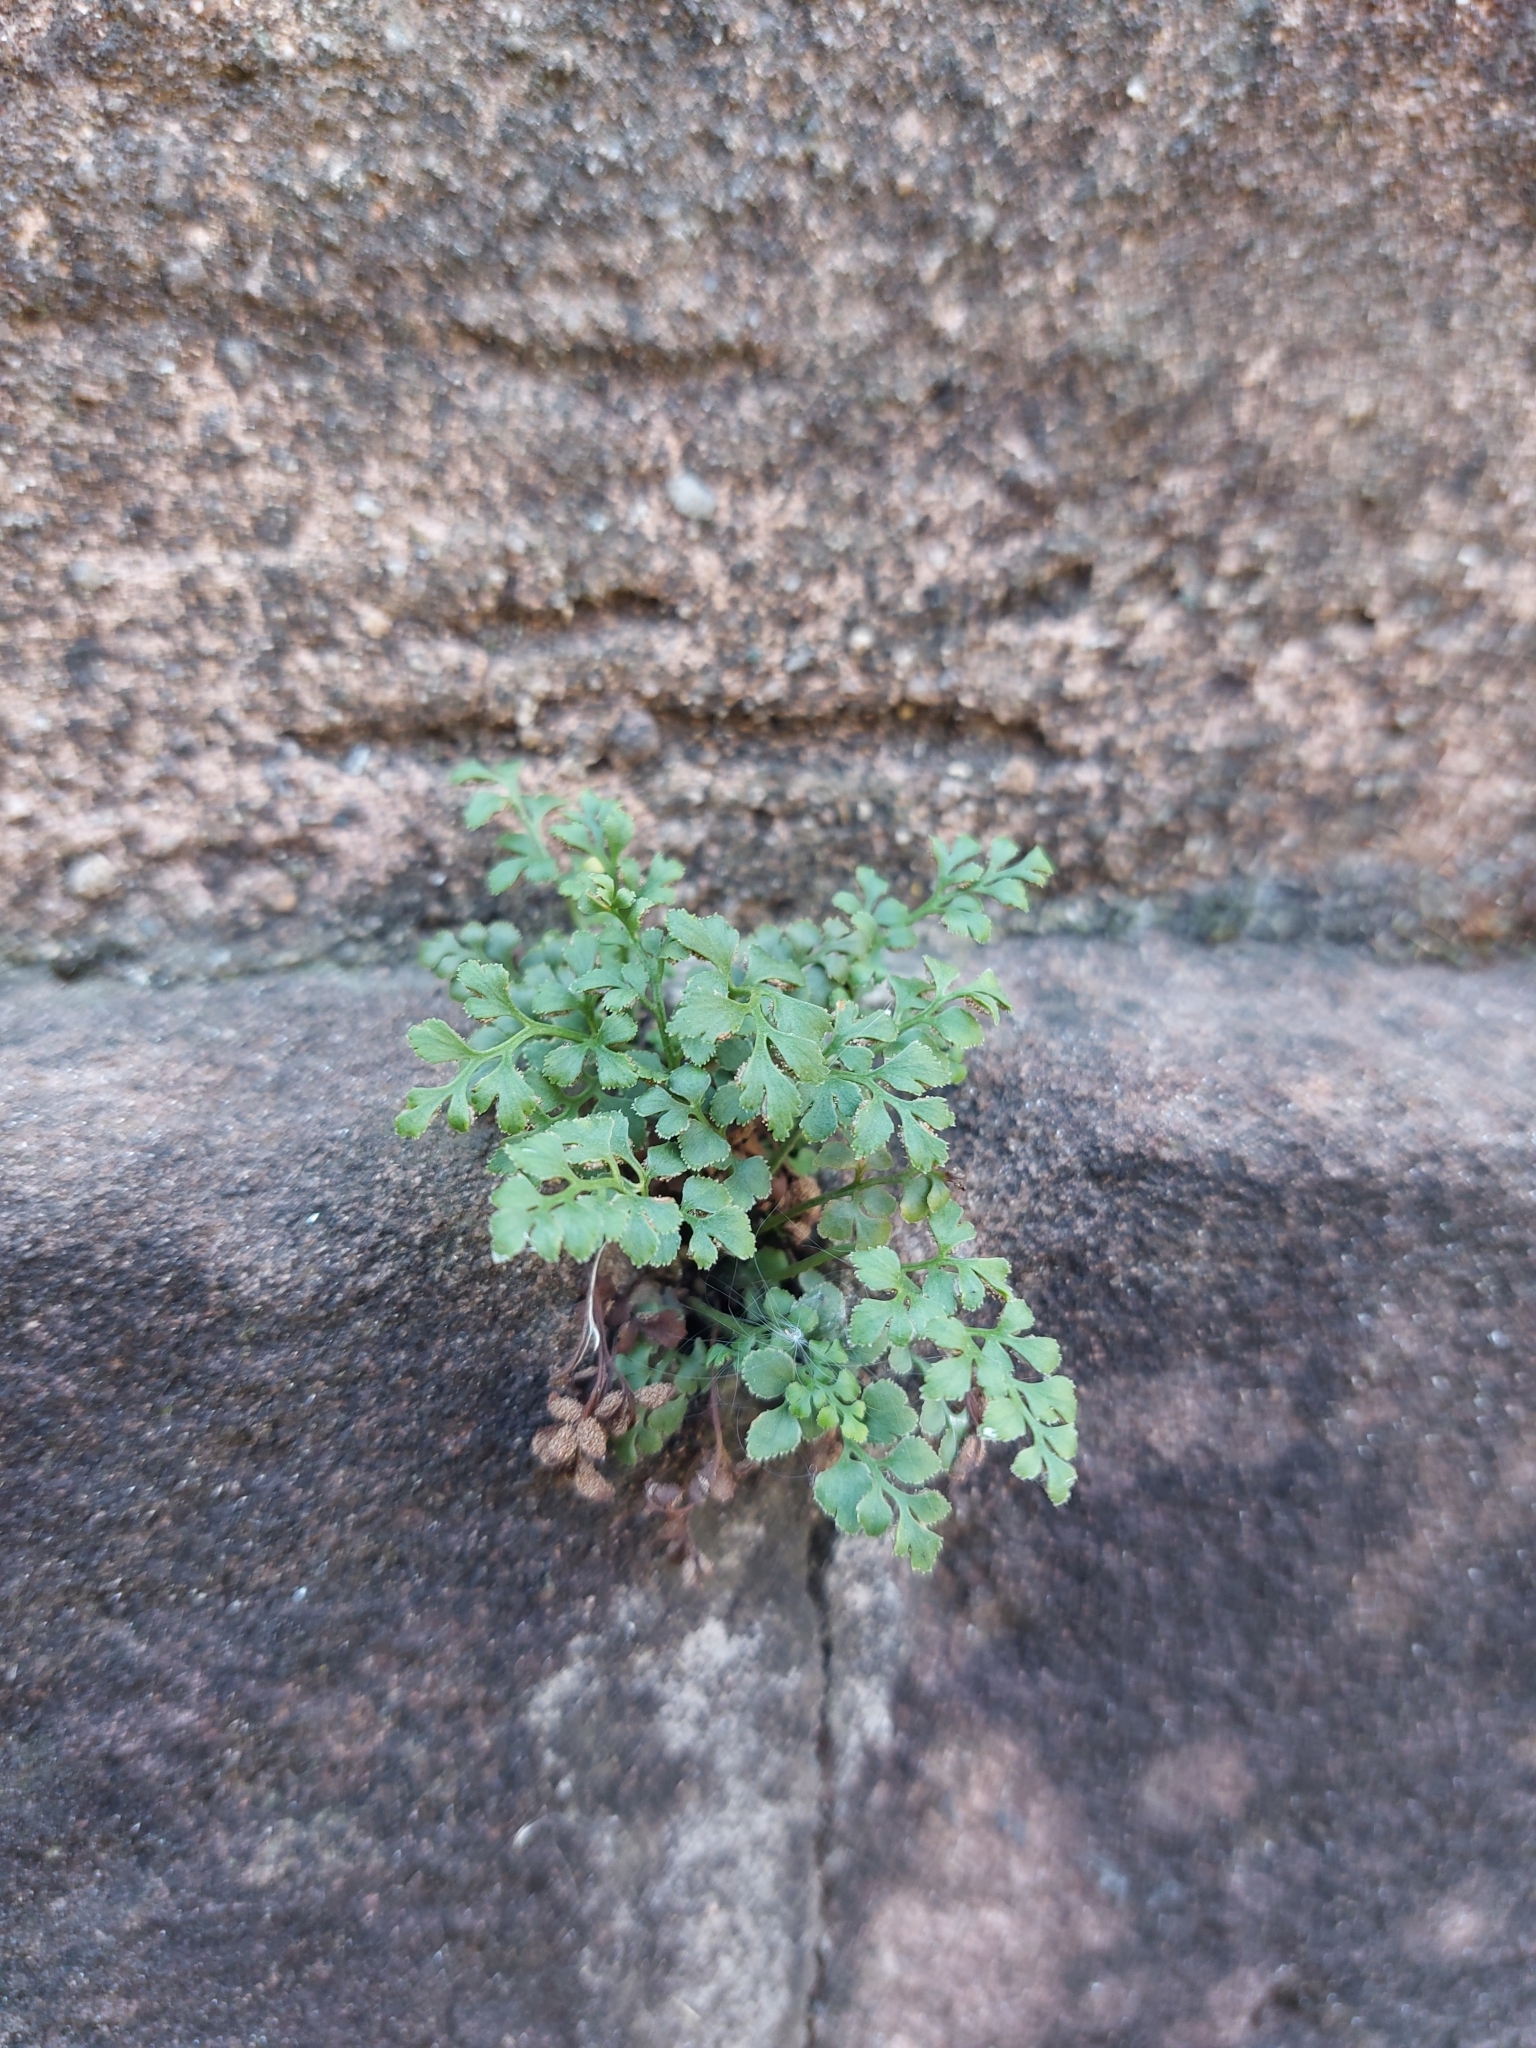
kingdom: Plantae
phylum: Tracheophyta
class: Polypodiopsida
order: Polypodiales
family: Aspleniaceae
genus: Asplenium
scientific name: Asplenium ruta-muraria
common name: Wall-rue
